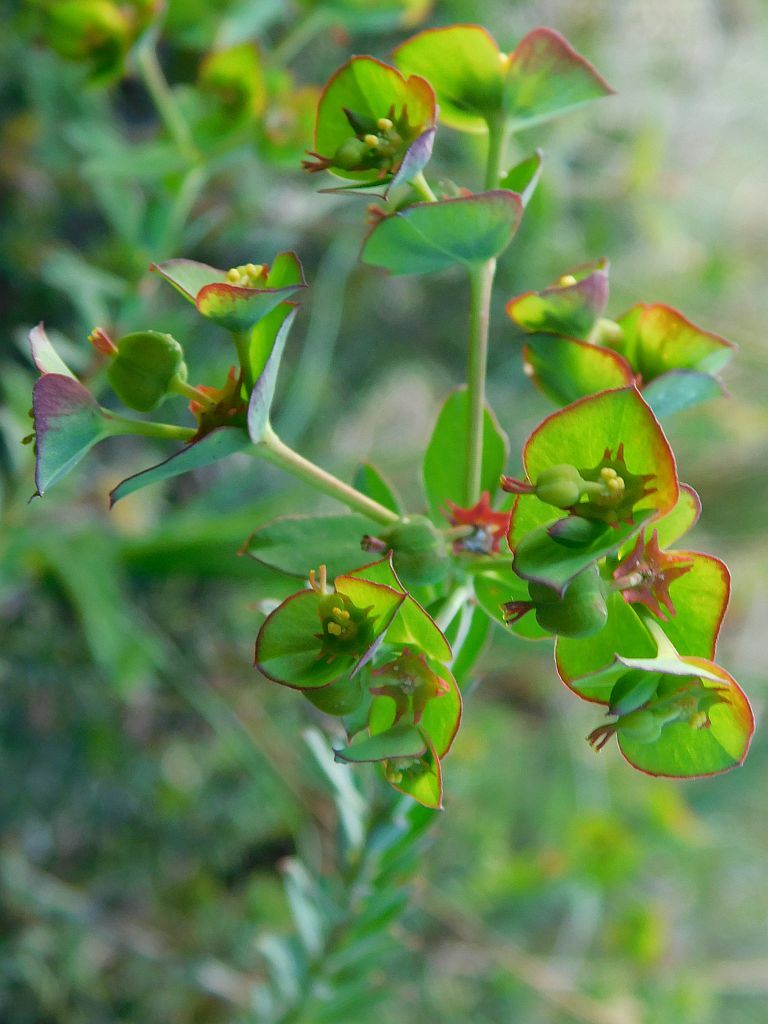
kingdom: Plantae
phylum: Tracheophyta
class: Magnoliopsida
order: Malpighiales
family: Euphorbiaceae
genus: Euphorbia
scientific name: Euphorbia genistoides
